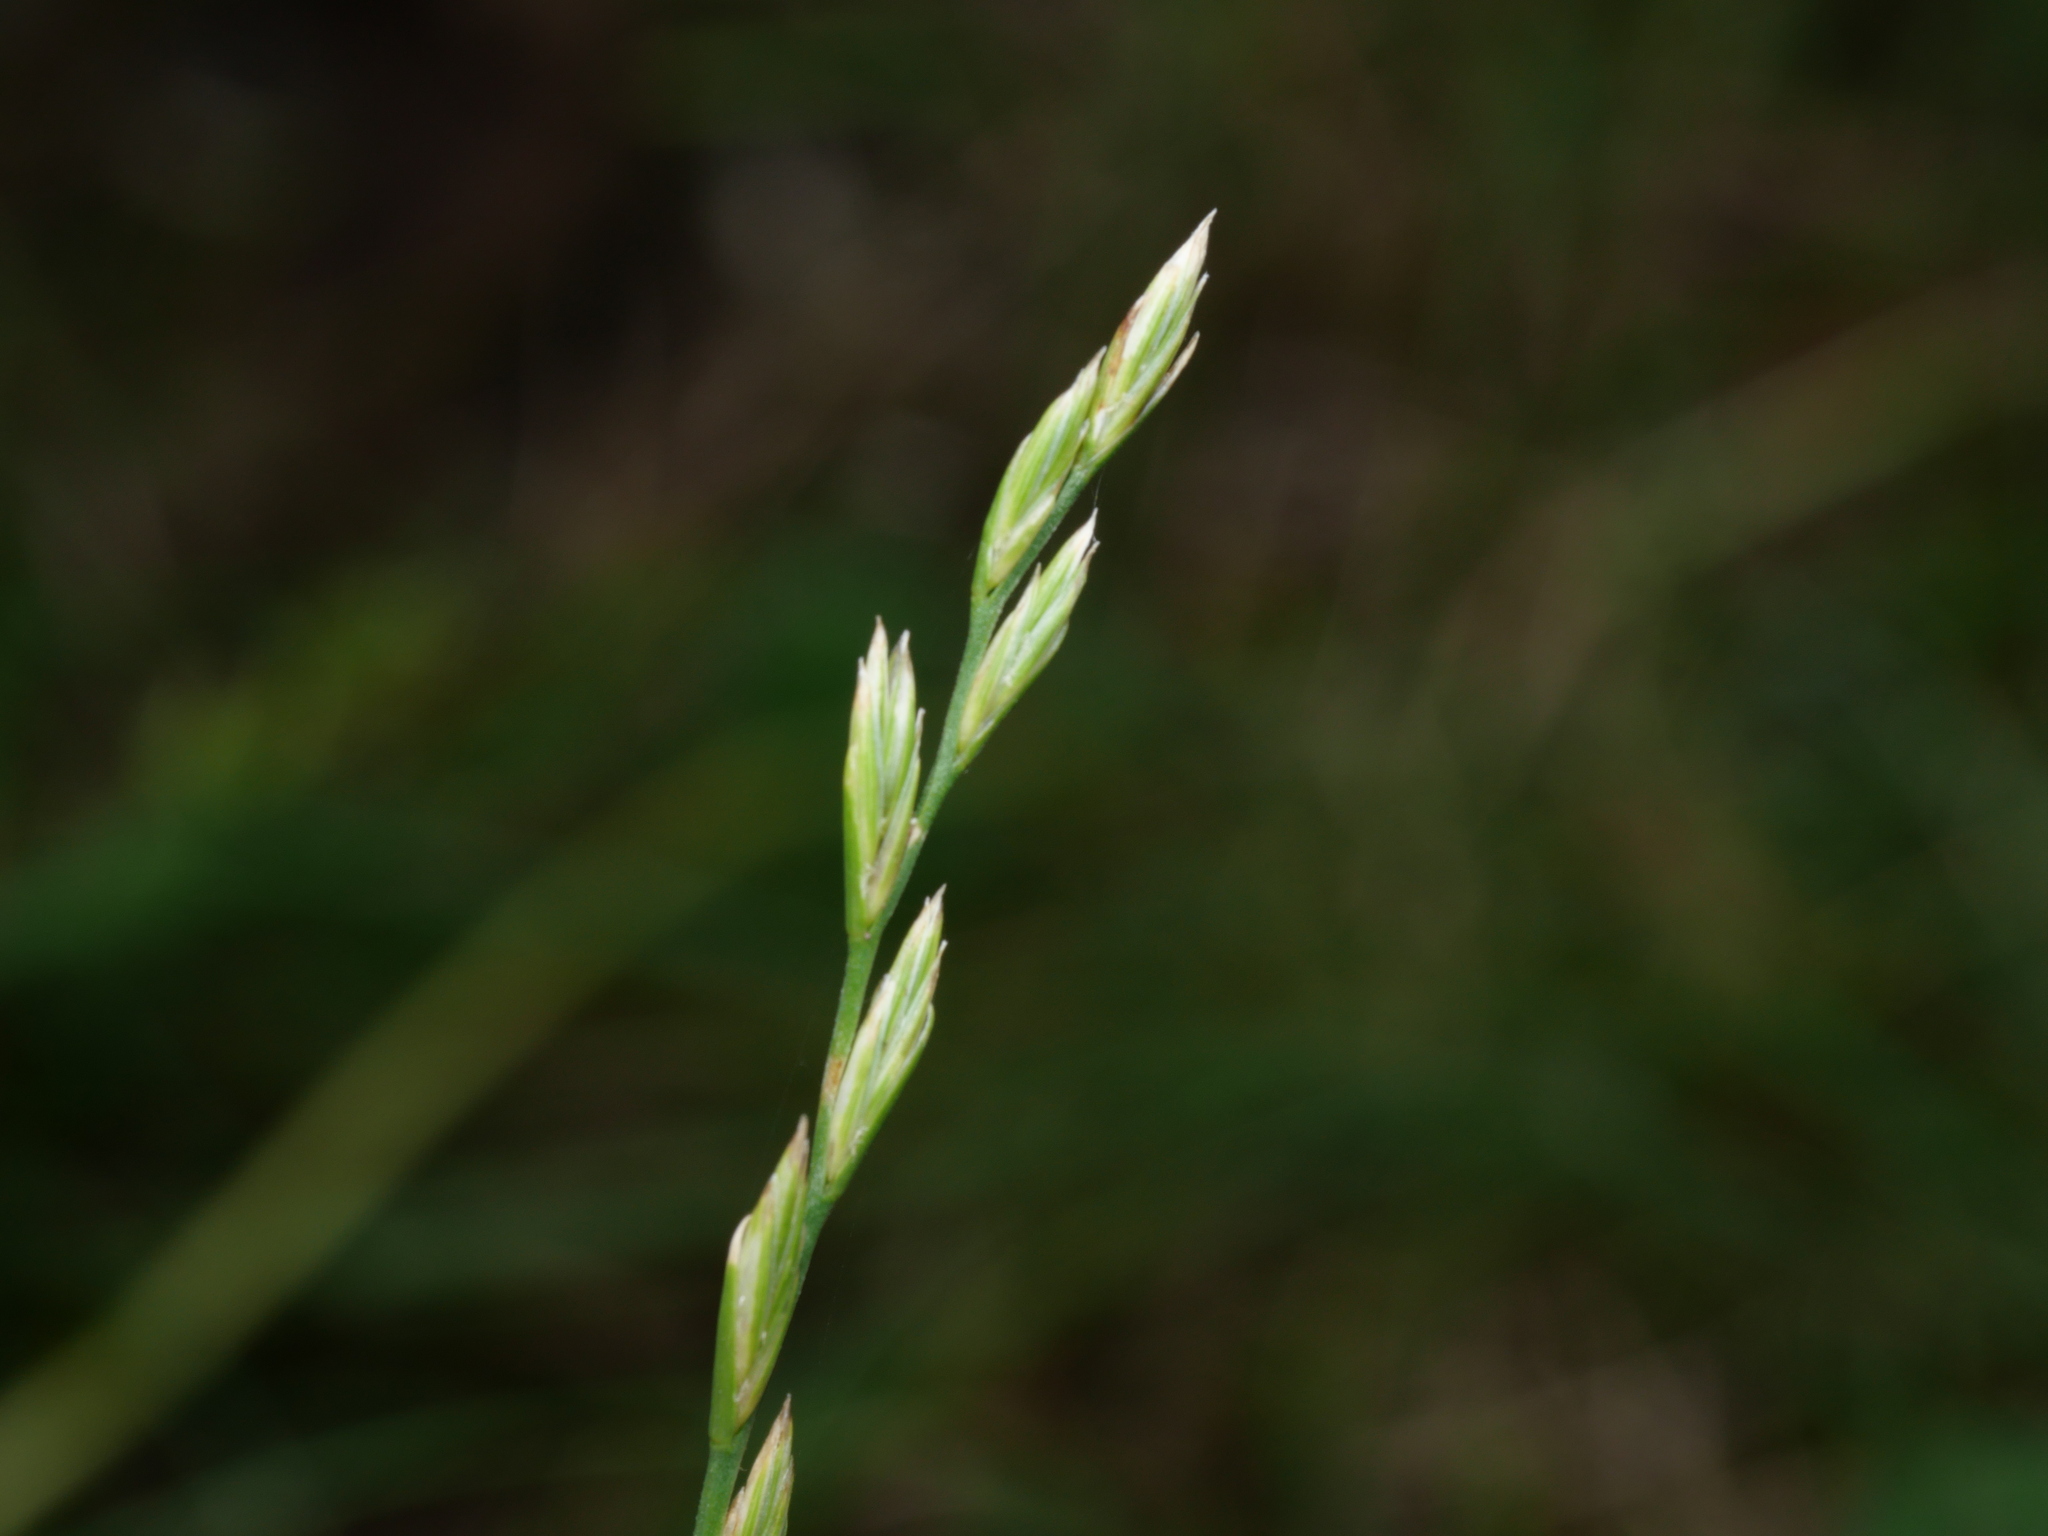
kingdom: Plantae
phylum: Tracheophyta
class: Liliopsida
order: Poales
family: Poaceae
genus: Lolium
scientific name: Lolium perenne
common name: Perennial ryegrass
